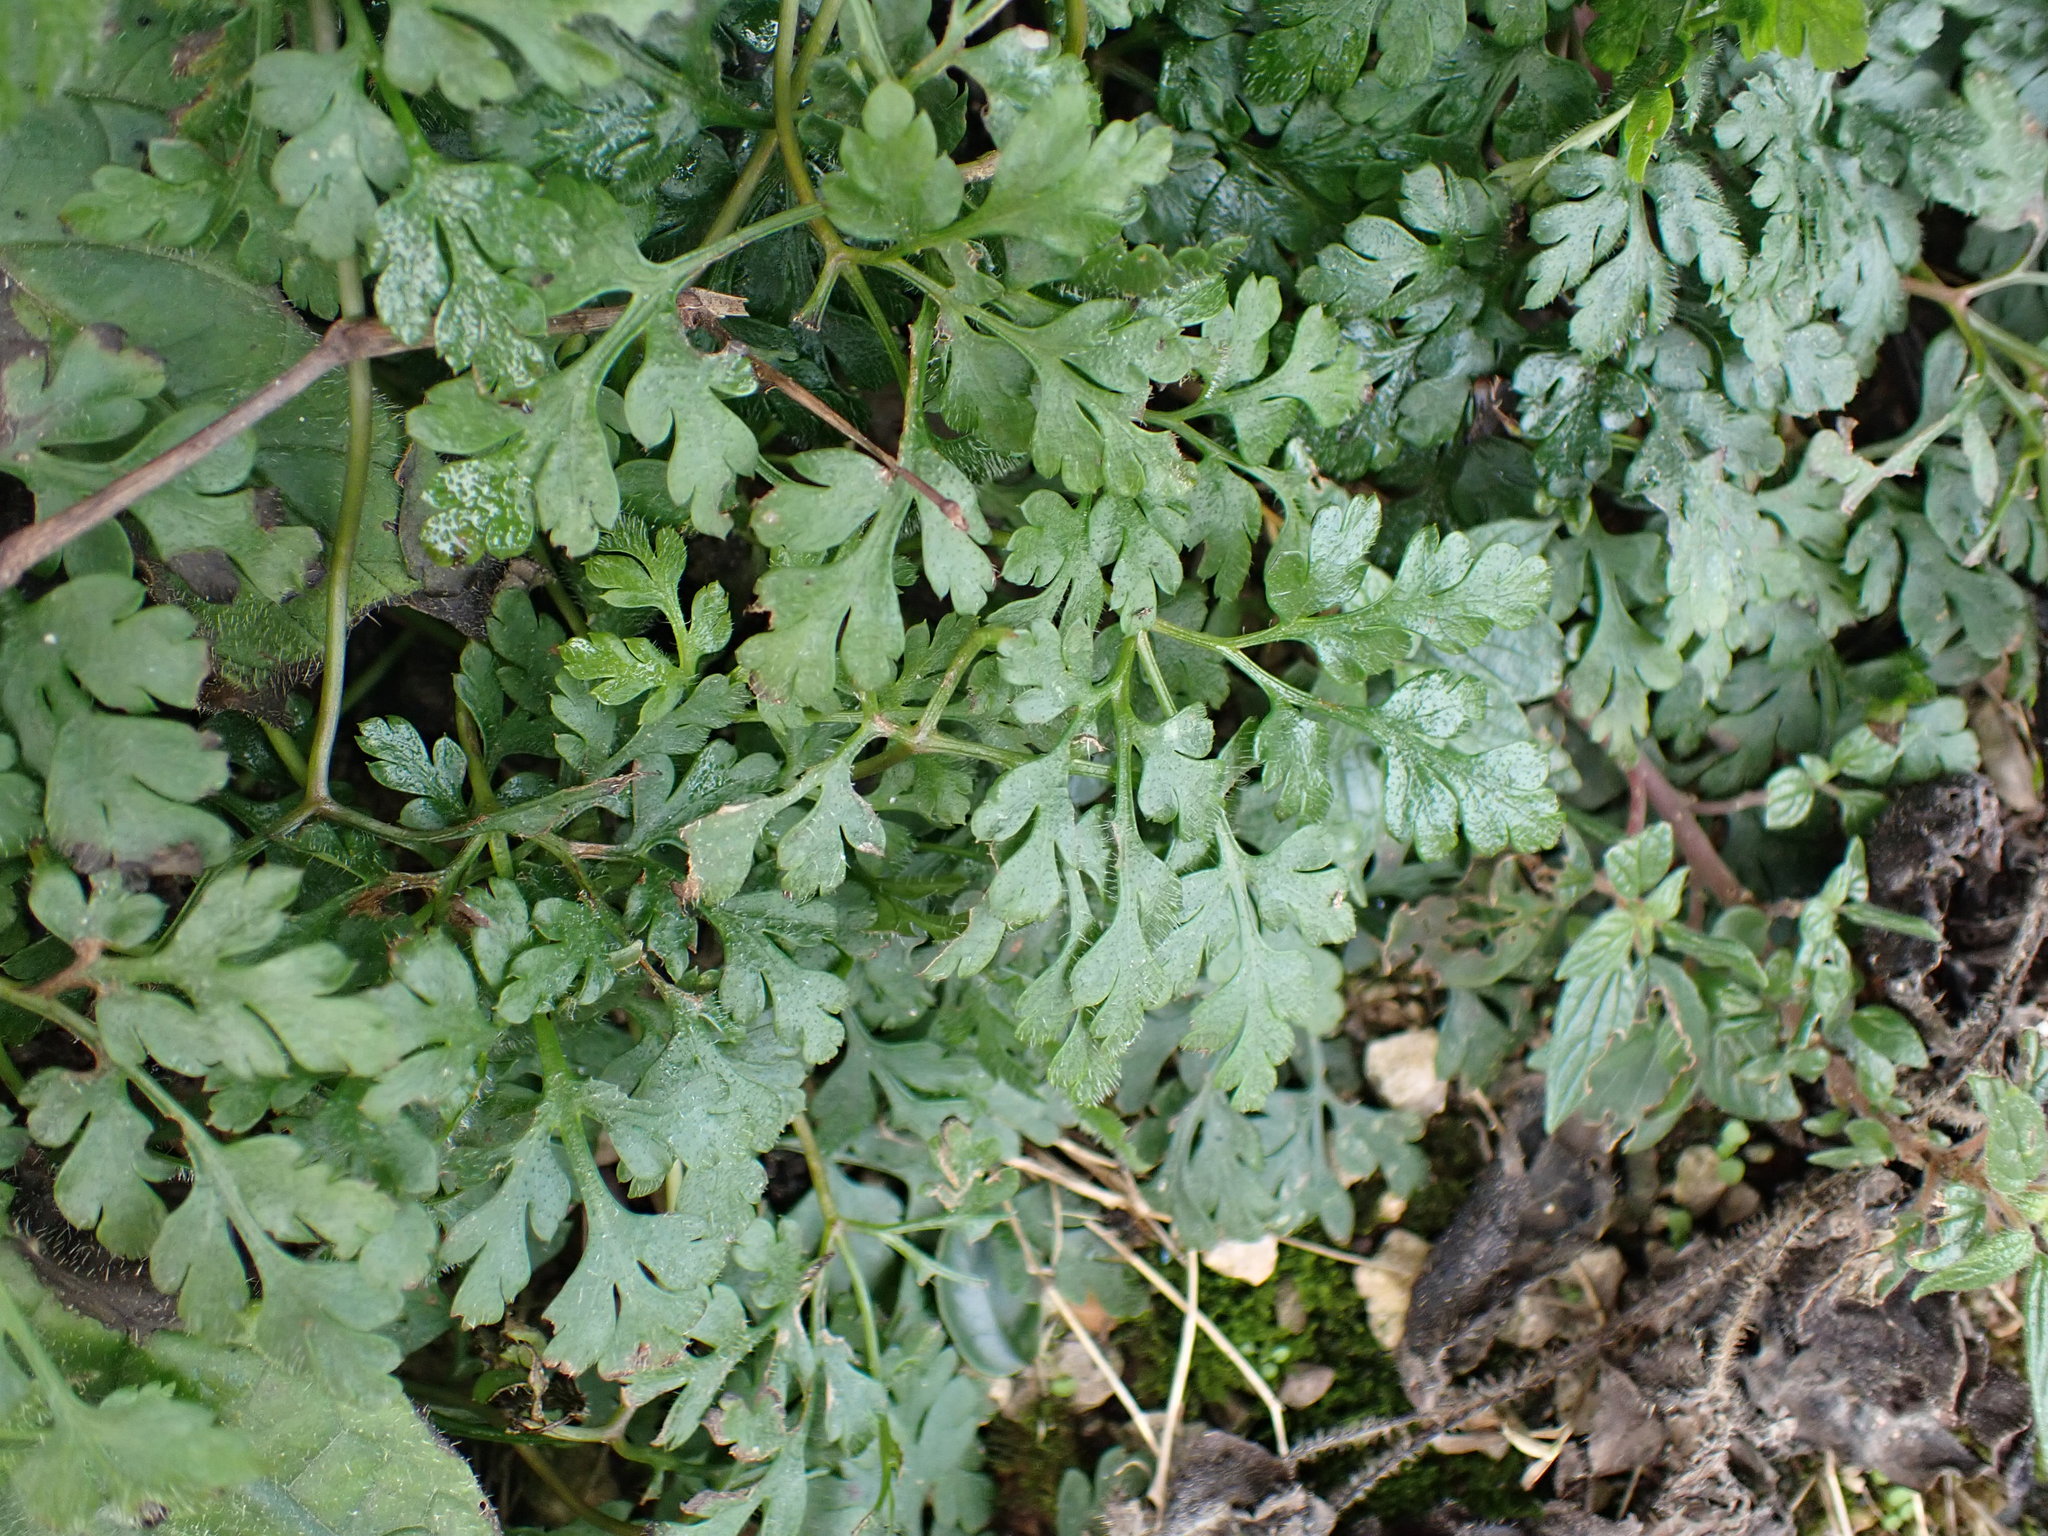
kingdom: Plantae
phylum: Tracheophyta
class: Magnoliopsida
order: Geraniales
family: Geraniaceae
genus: Geranium
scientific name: Geranium robertianum
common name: Herb-robert
